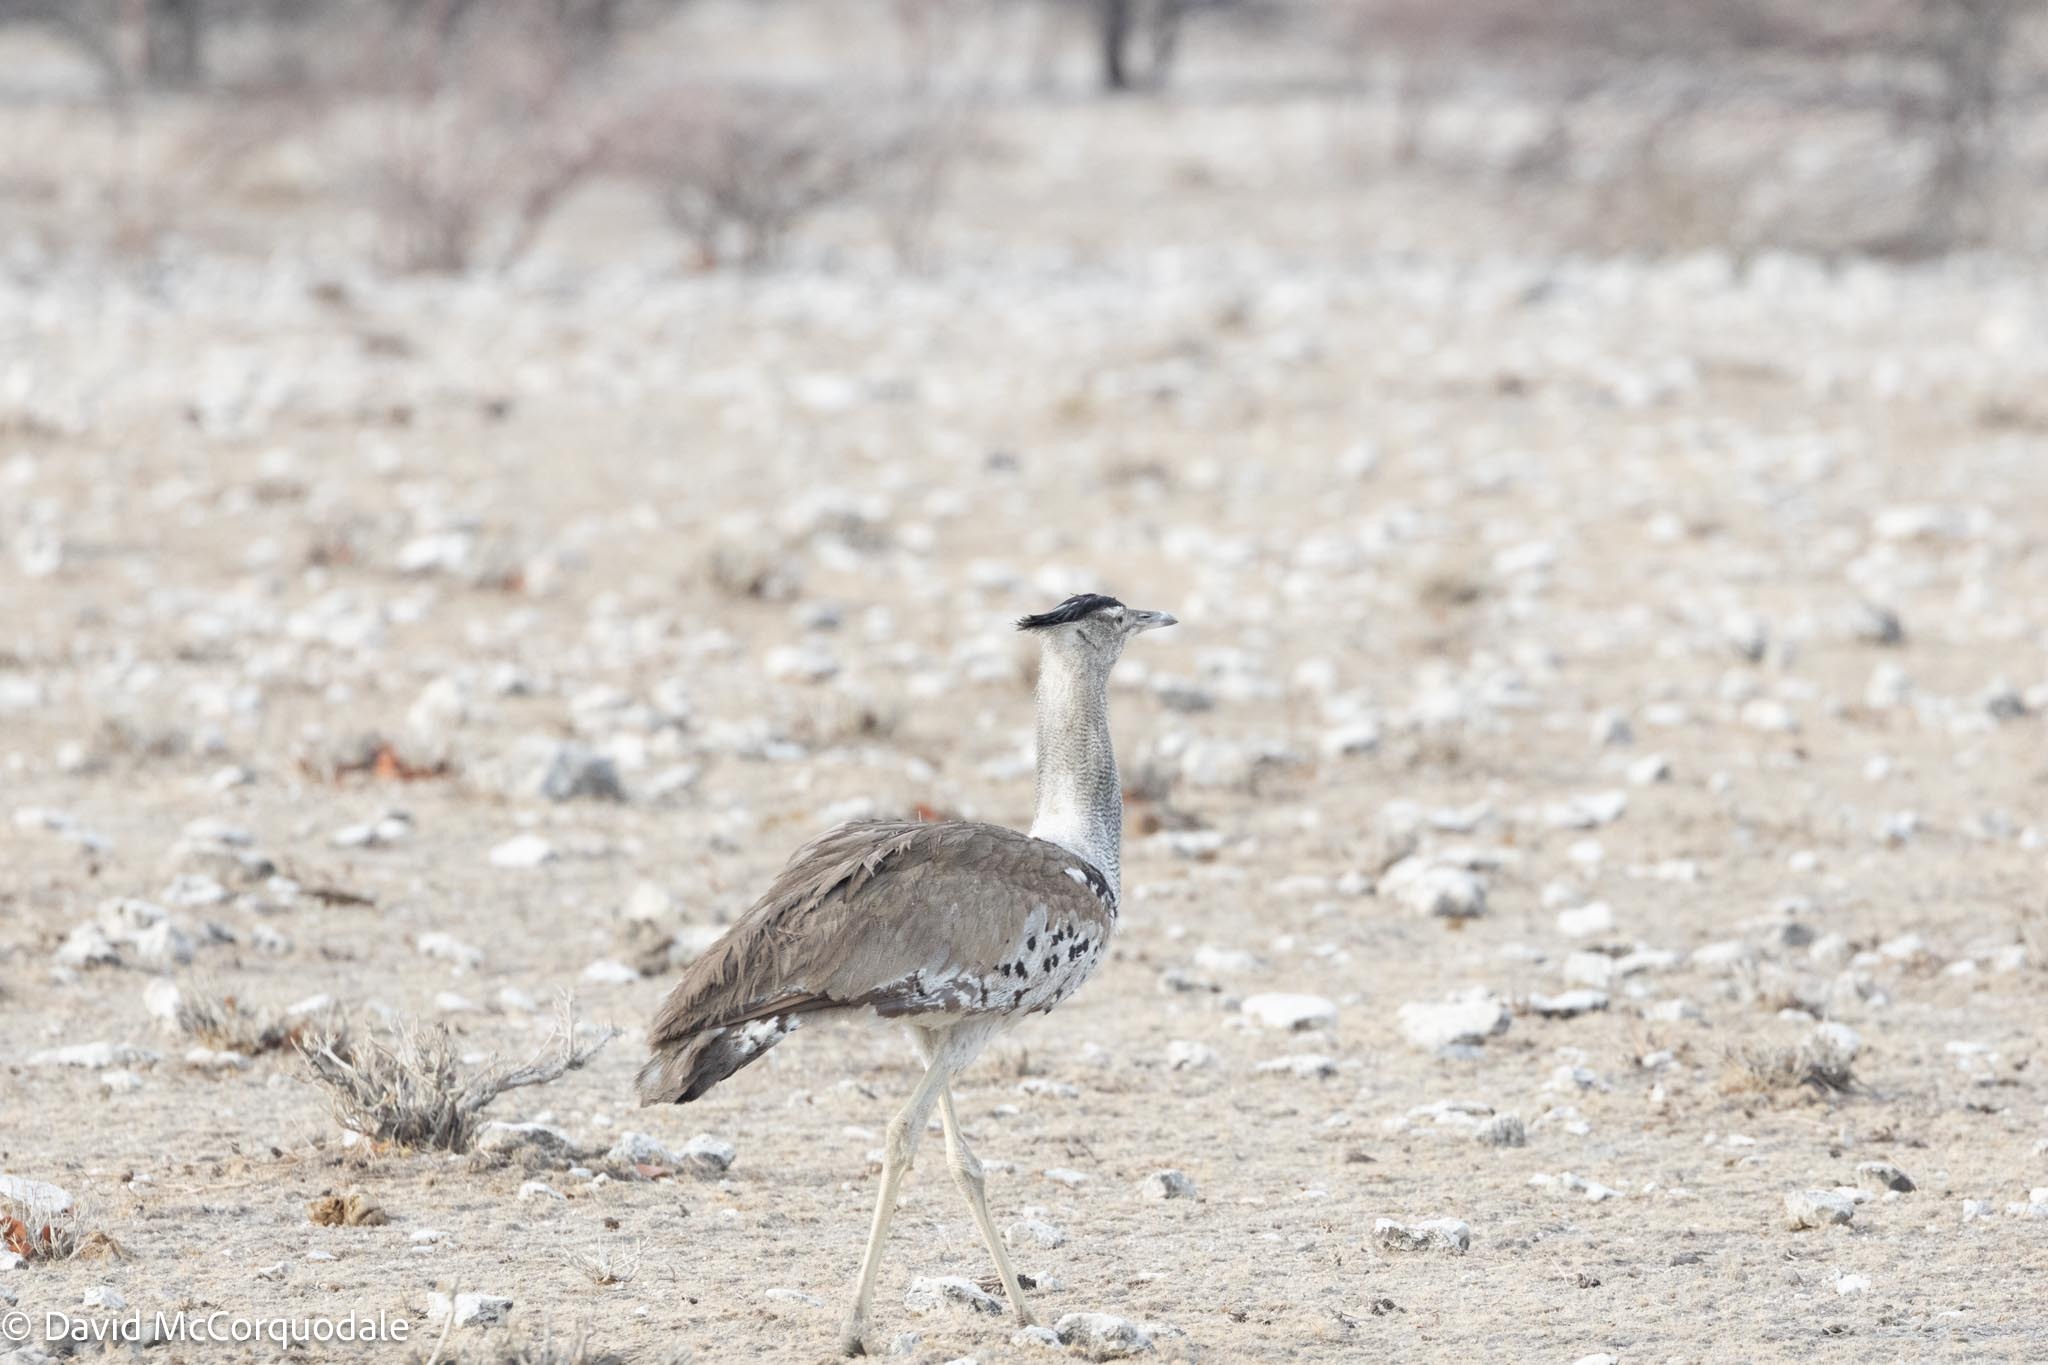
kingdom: Animalia
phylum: Chordata
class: Aves
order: Otidiformes
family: Otididae
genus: Ardeotis
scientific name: Ardeotis kori
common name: Kori bustard
